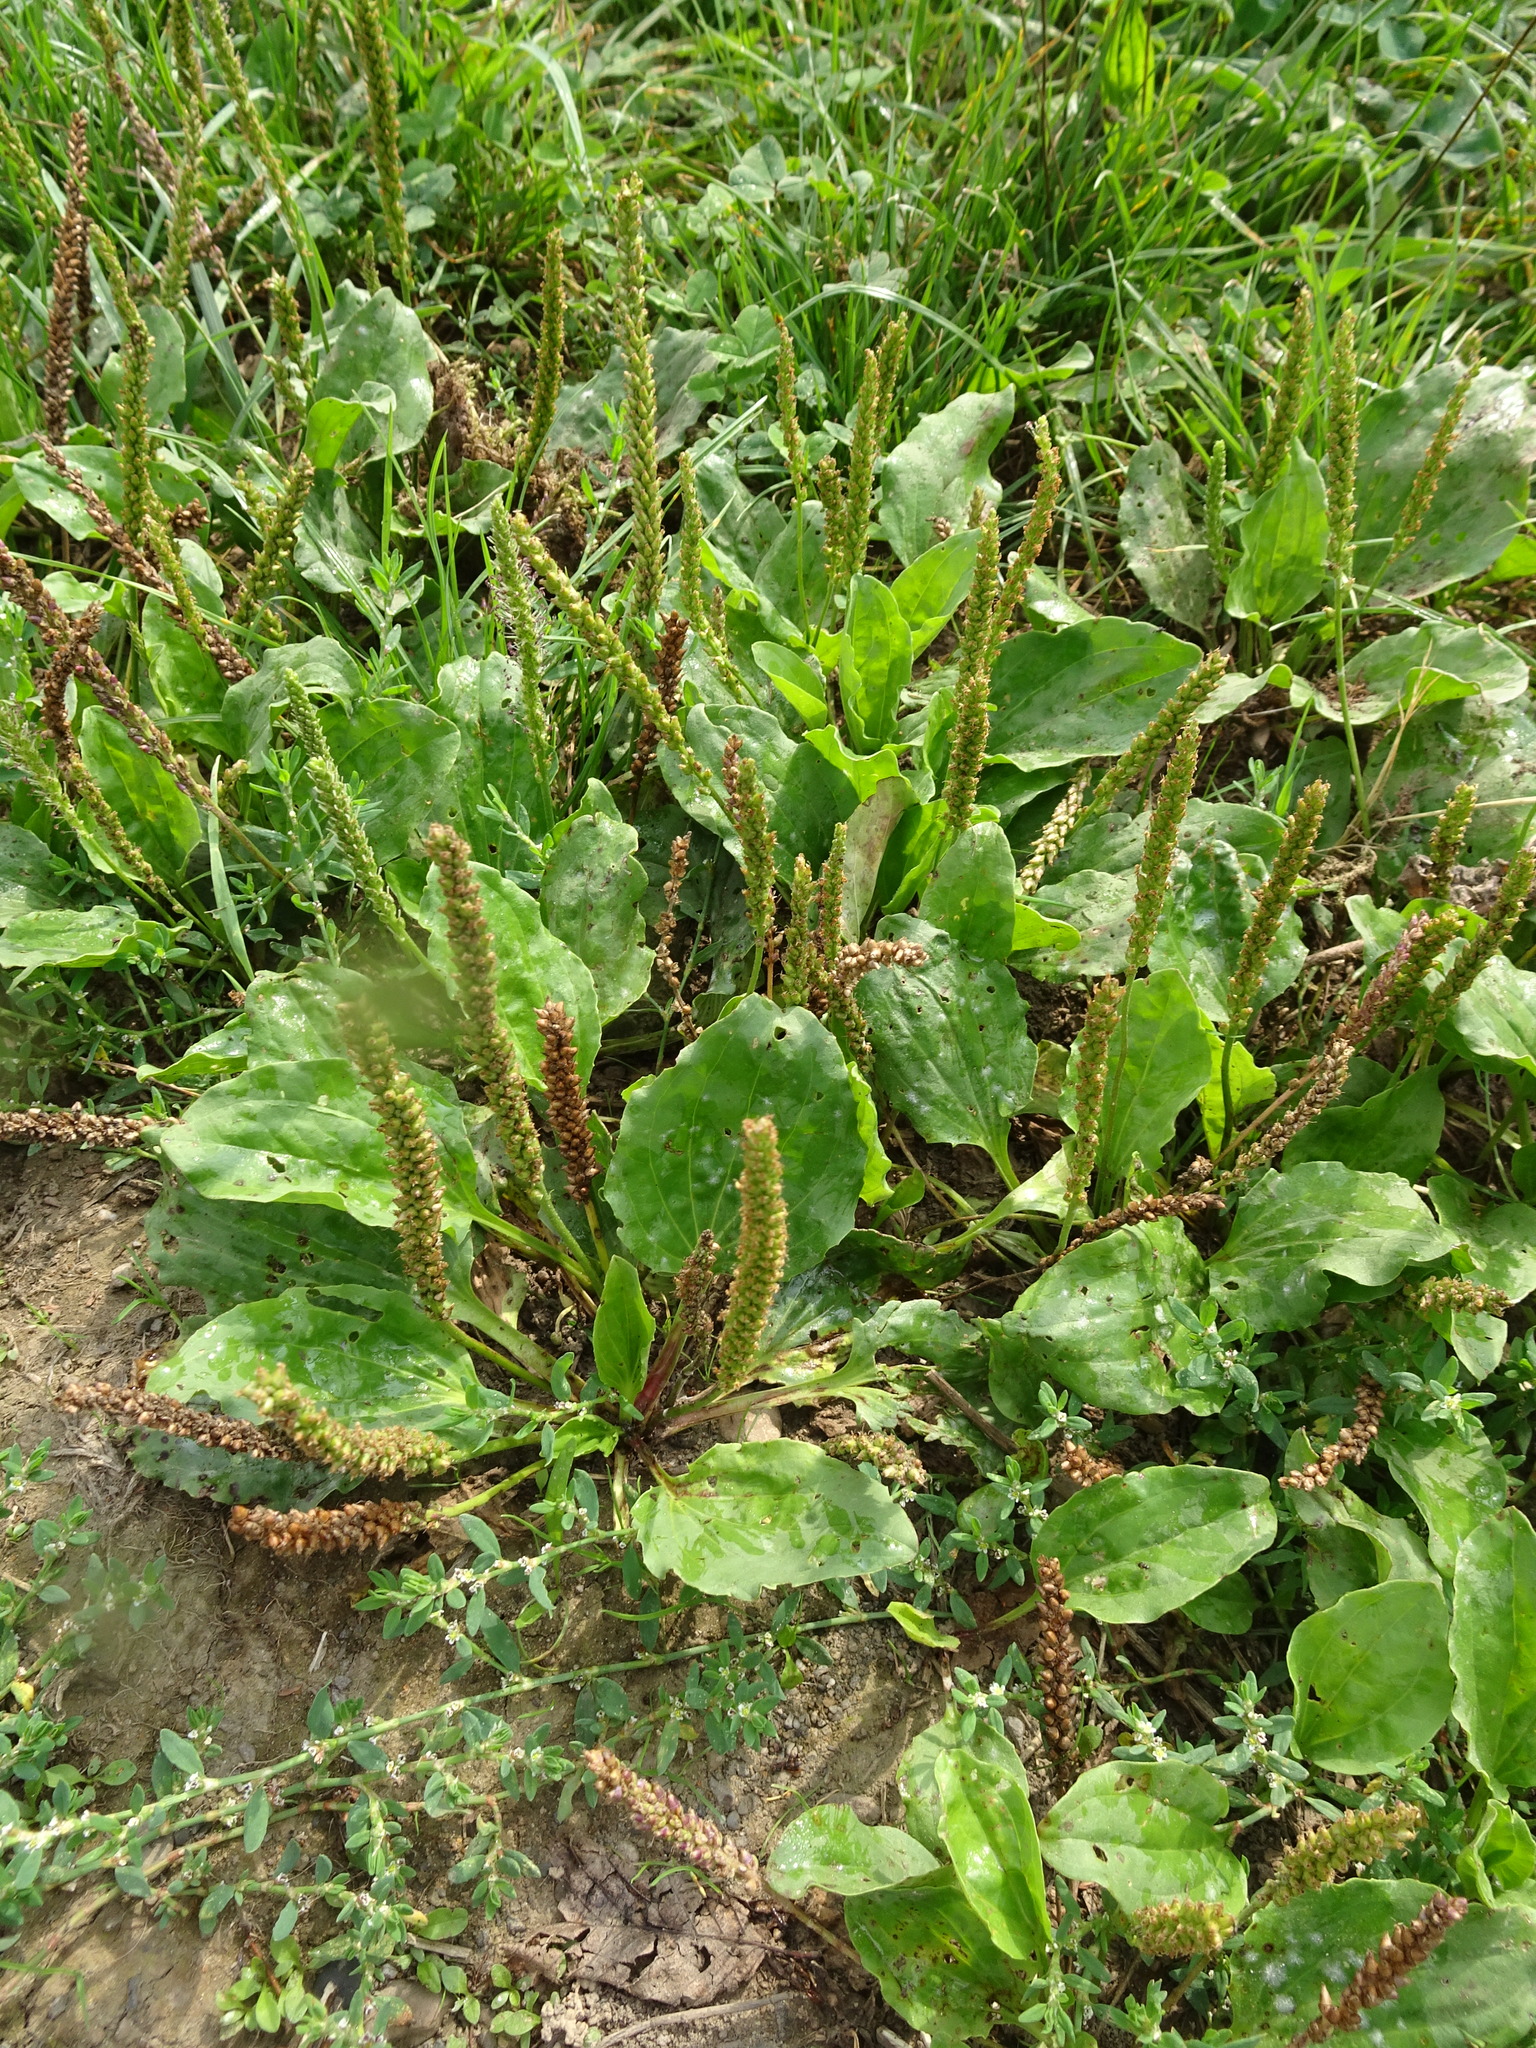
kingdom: Plantae
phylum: Tracheophyta
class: Magnoliopsida
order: Lamiales
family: Plantaginaceae
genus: Plantago
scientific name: Plantago major
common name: Common plantain
